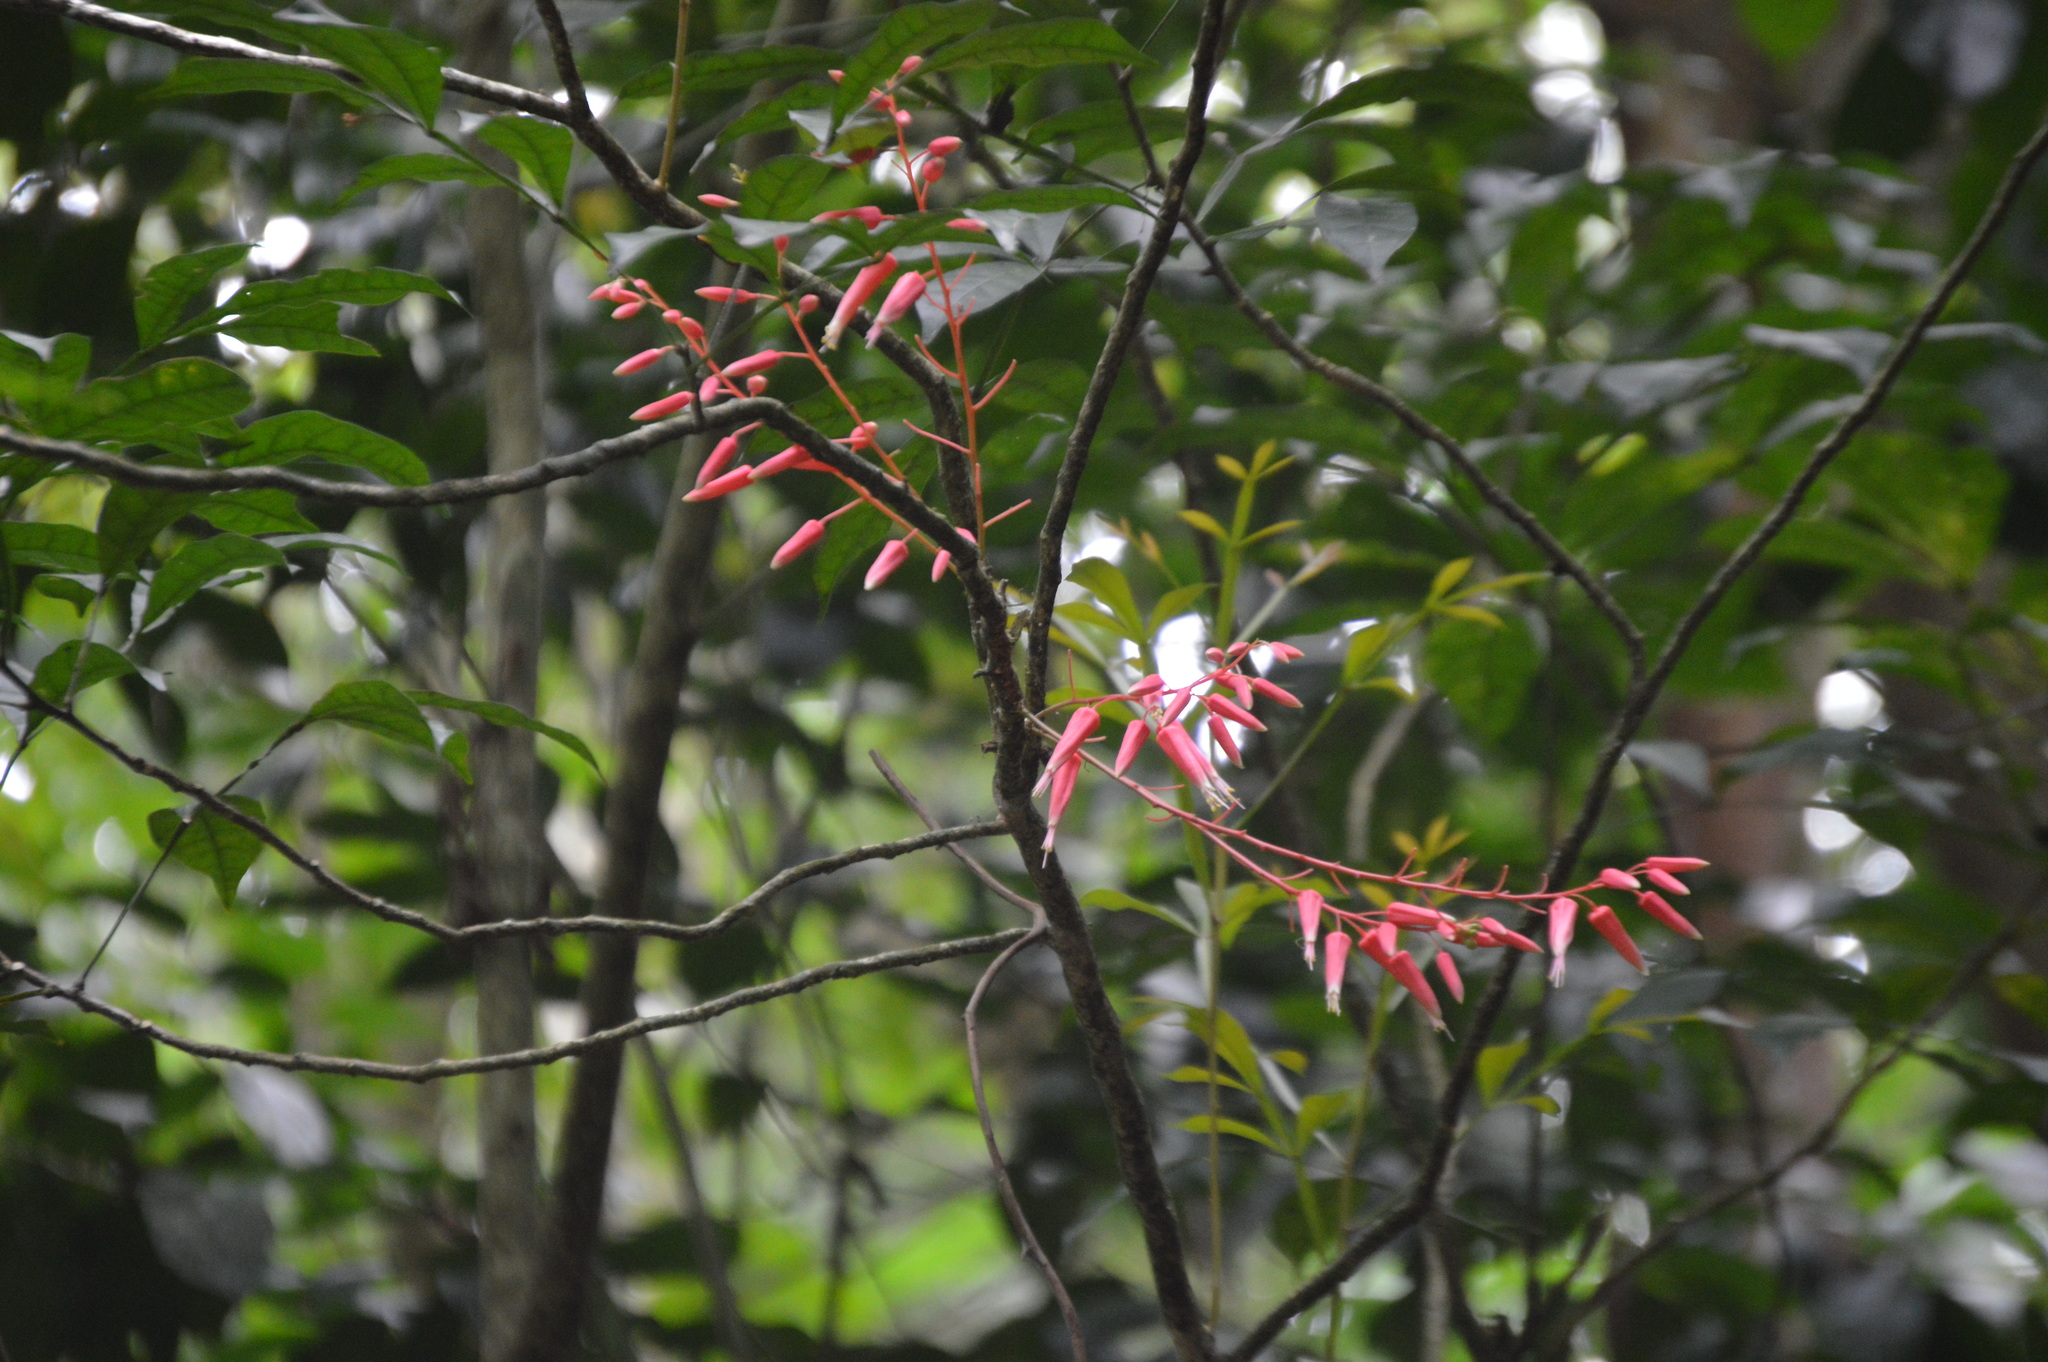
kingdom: Plantae
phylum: Tracheophyta
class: Magnoliopsida
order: Sapindales
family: Simaroubaceae
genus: Quassia
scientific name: Quassia amara
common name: Quassia
